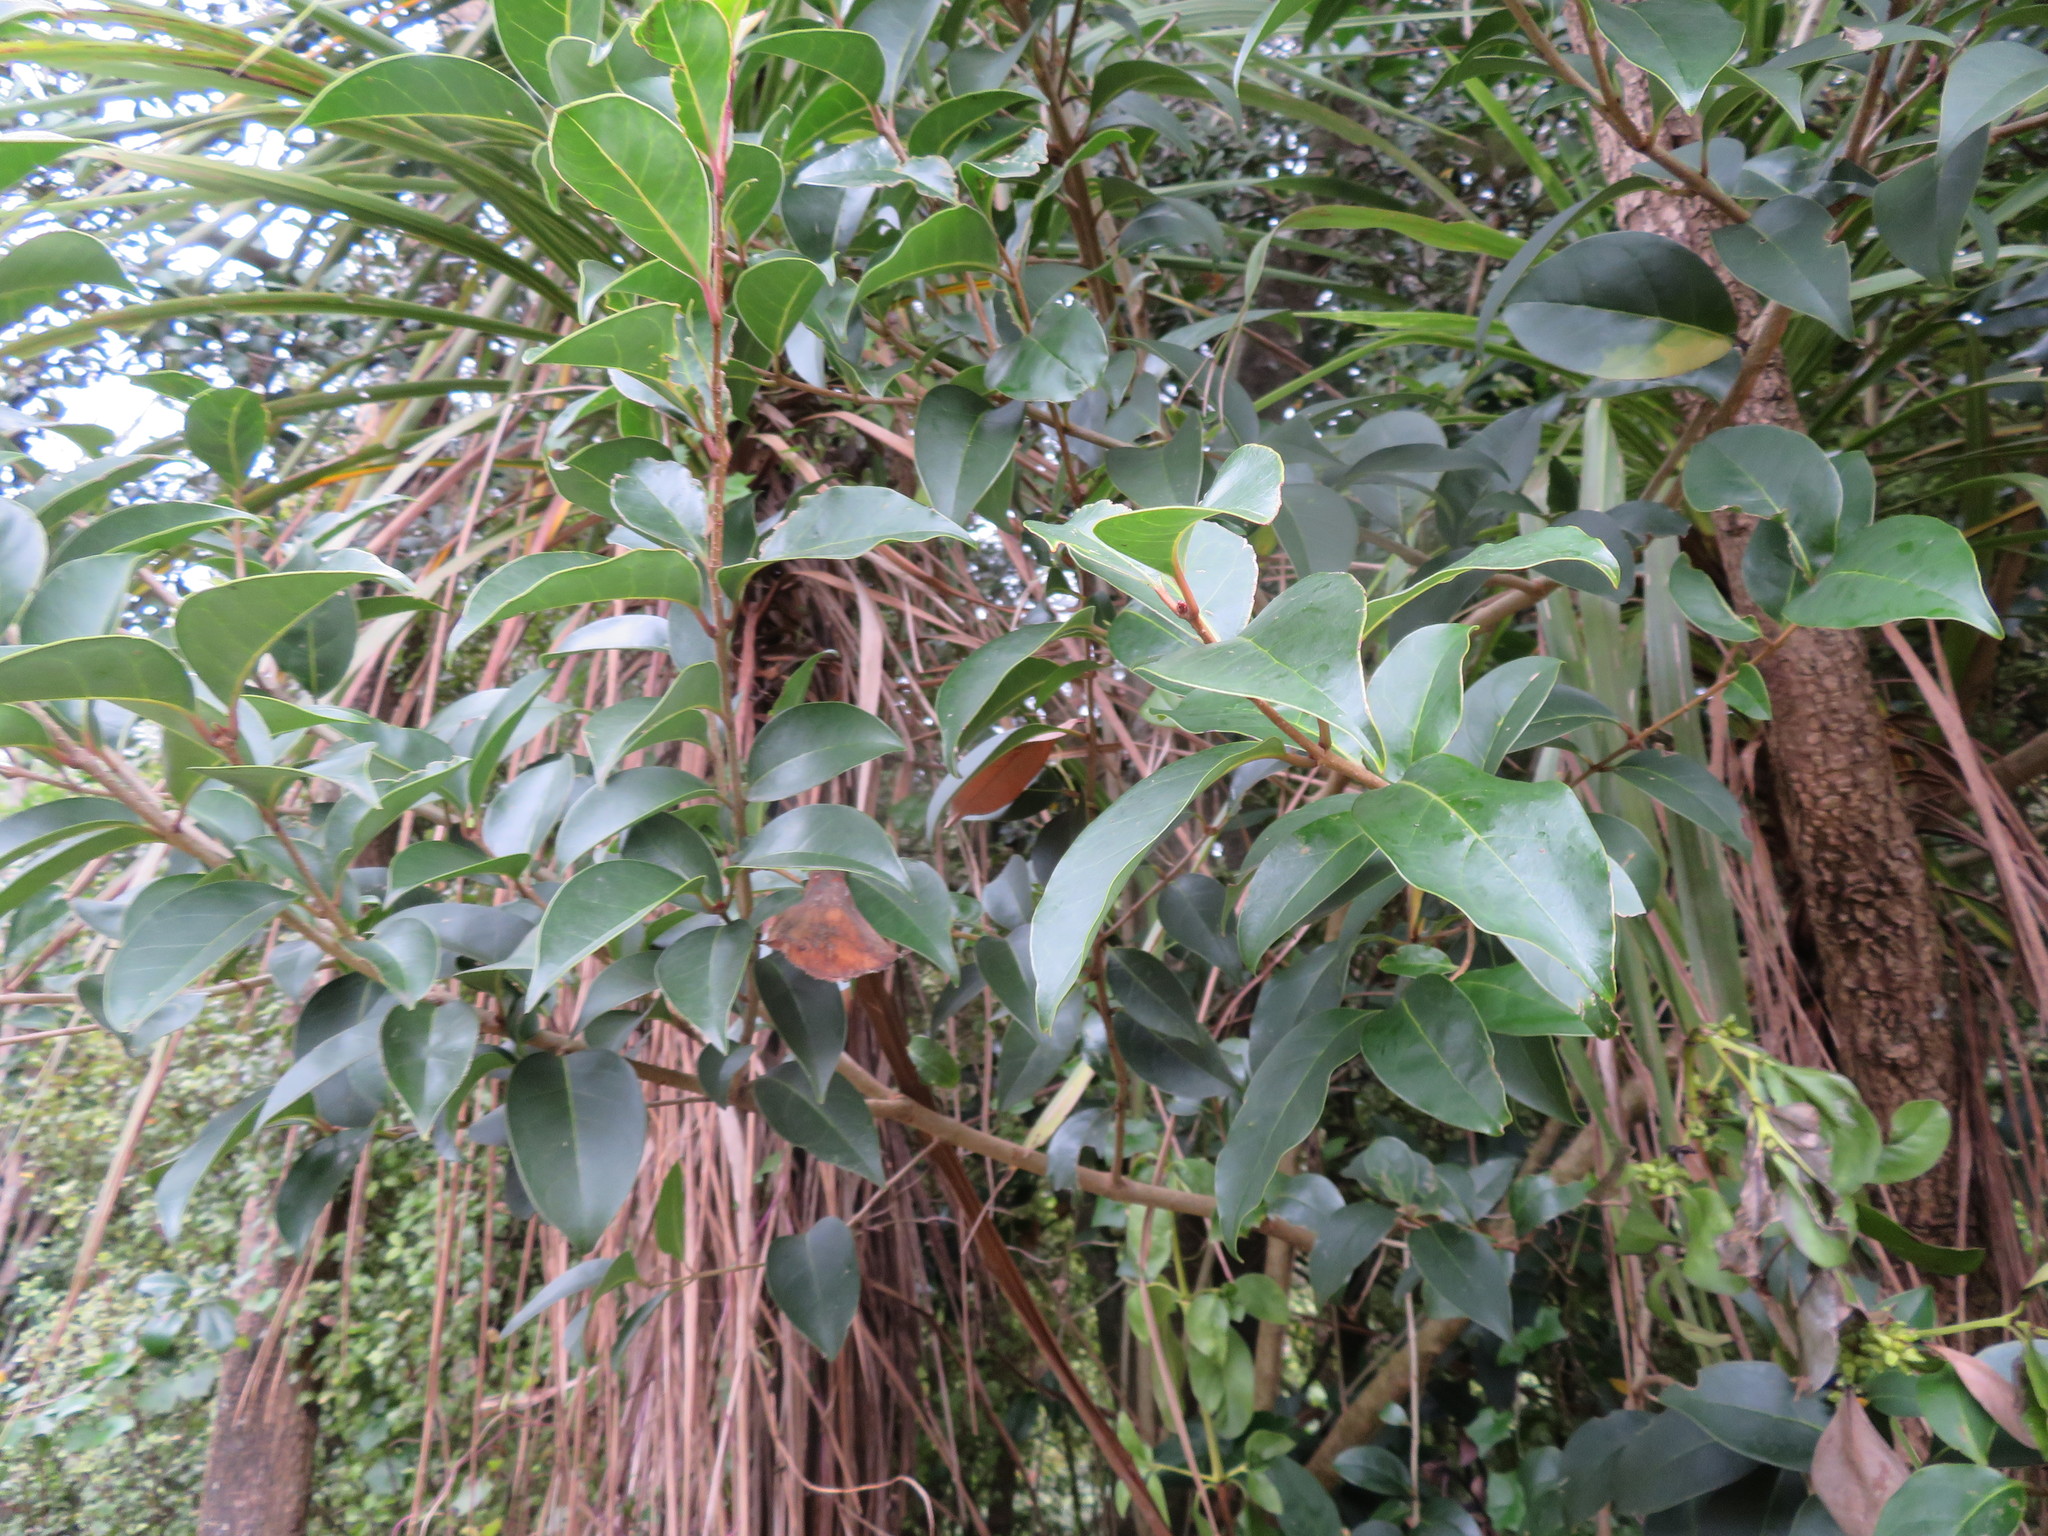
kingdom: Plantae
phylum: Tracheophyta
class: Magnoliopsida
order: Lamiales
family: Oleaceae
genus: Ligustrum
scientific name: Ligustrum lucidum
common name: Glossy privet
